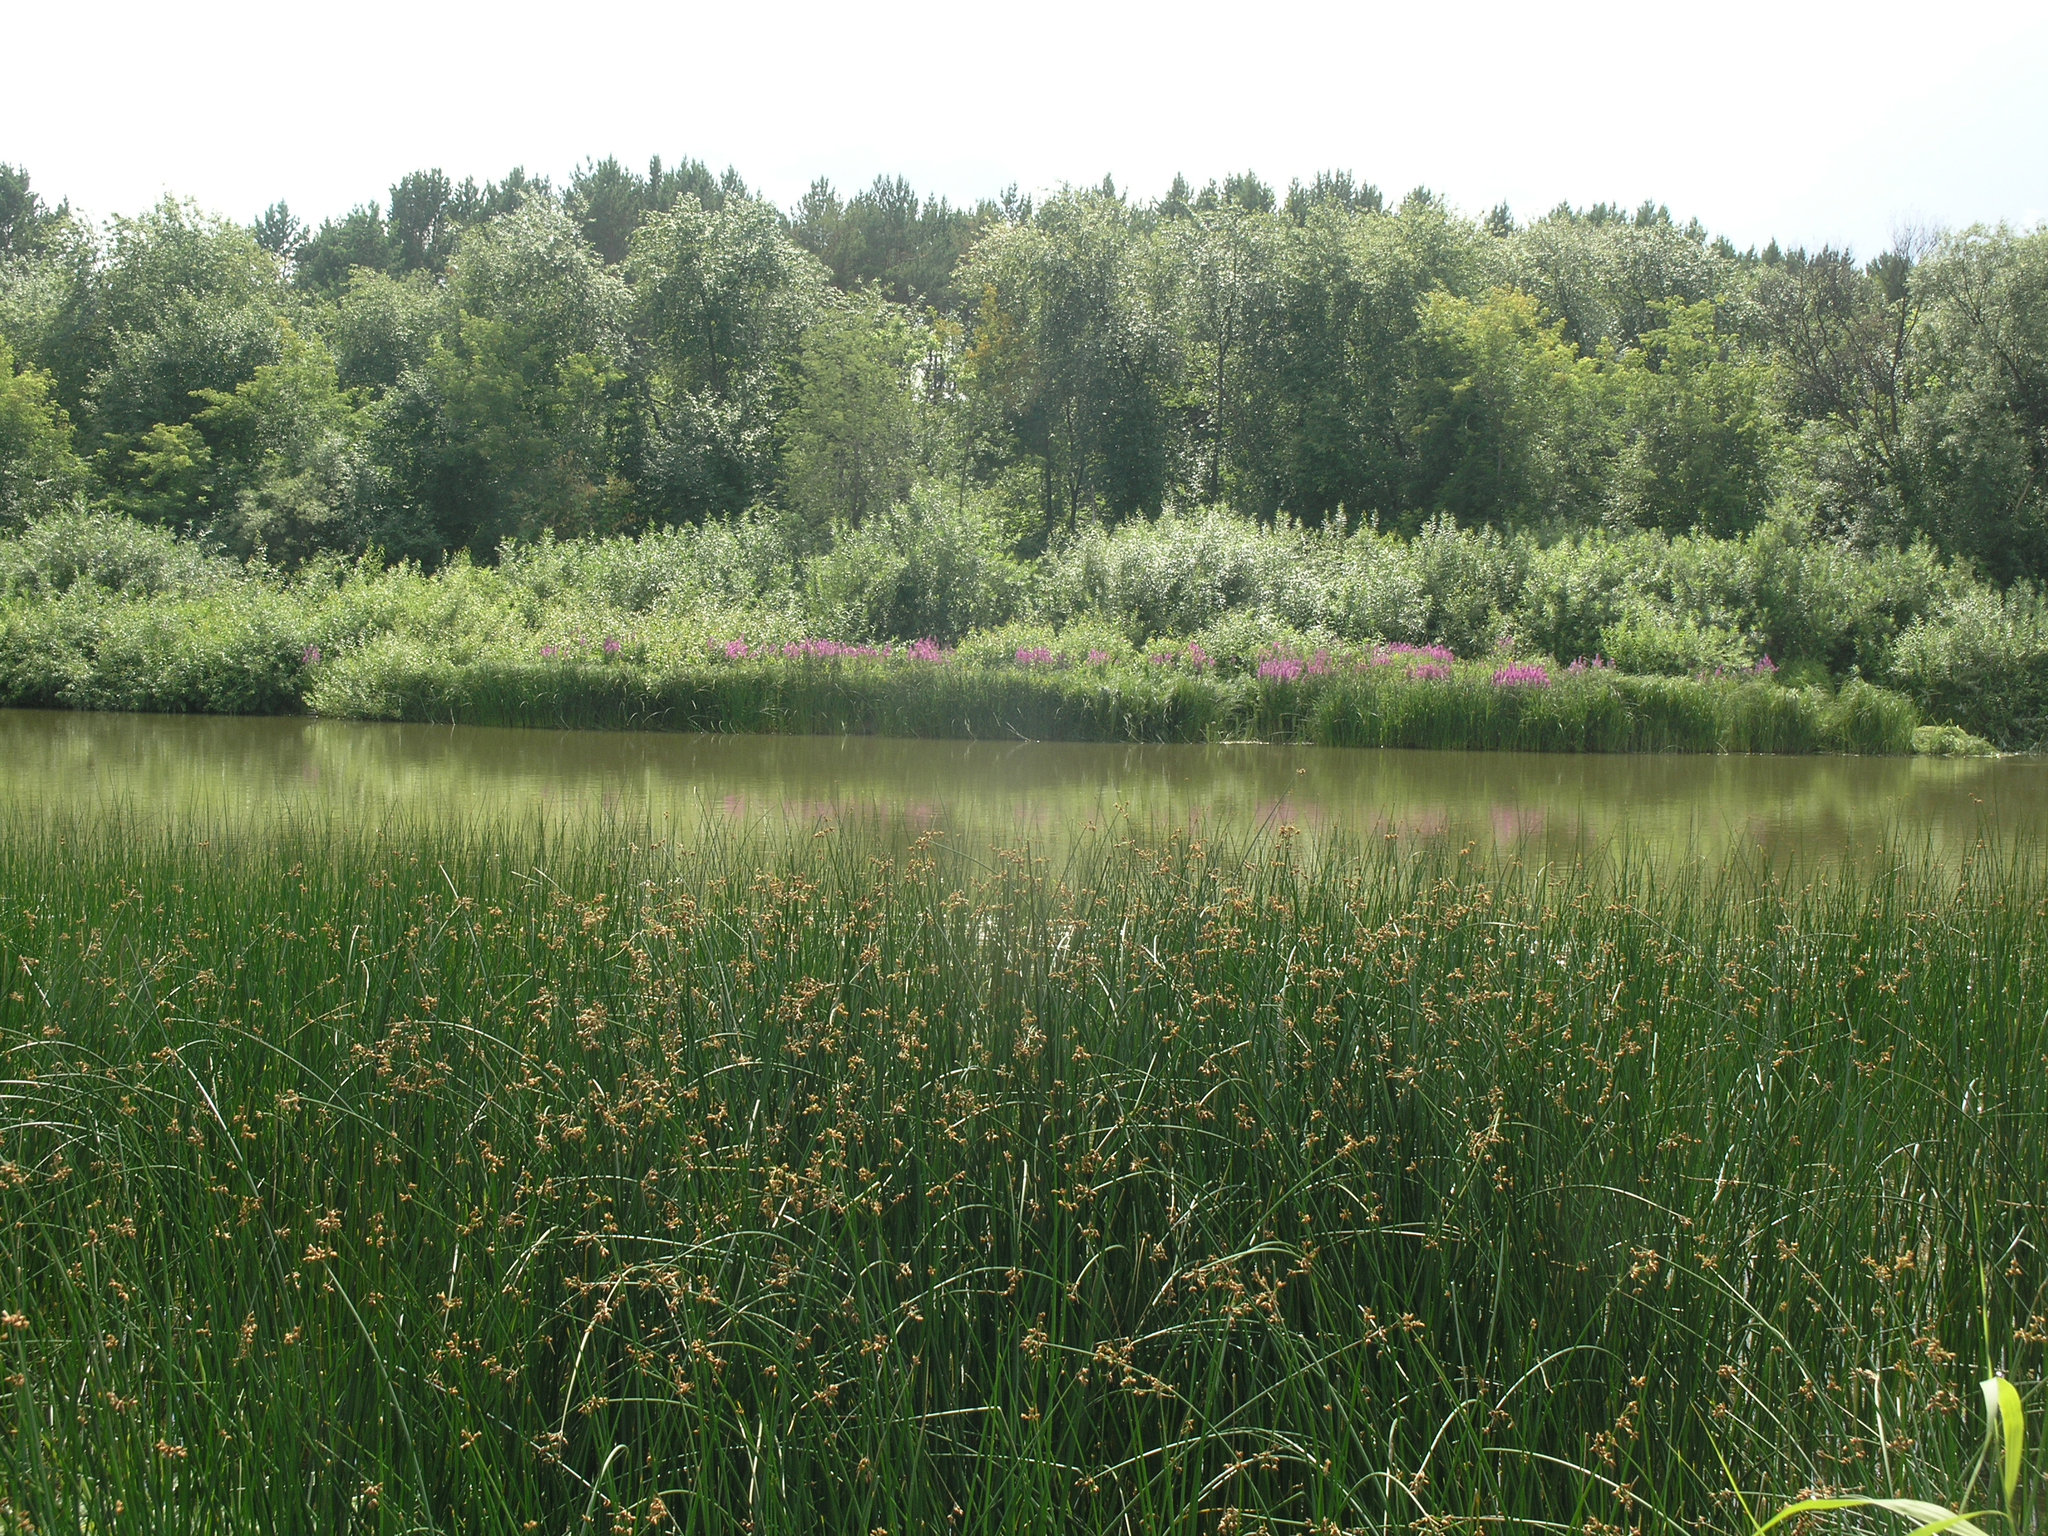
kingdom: Plantae
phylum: Tracheophyta
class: Liliopsida
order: Poales
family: Cyperaceae
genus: Schoenoplectus
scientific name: Schoenoplectus lacustris
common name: Common club-rush
